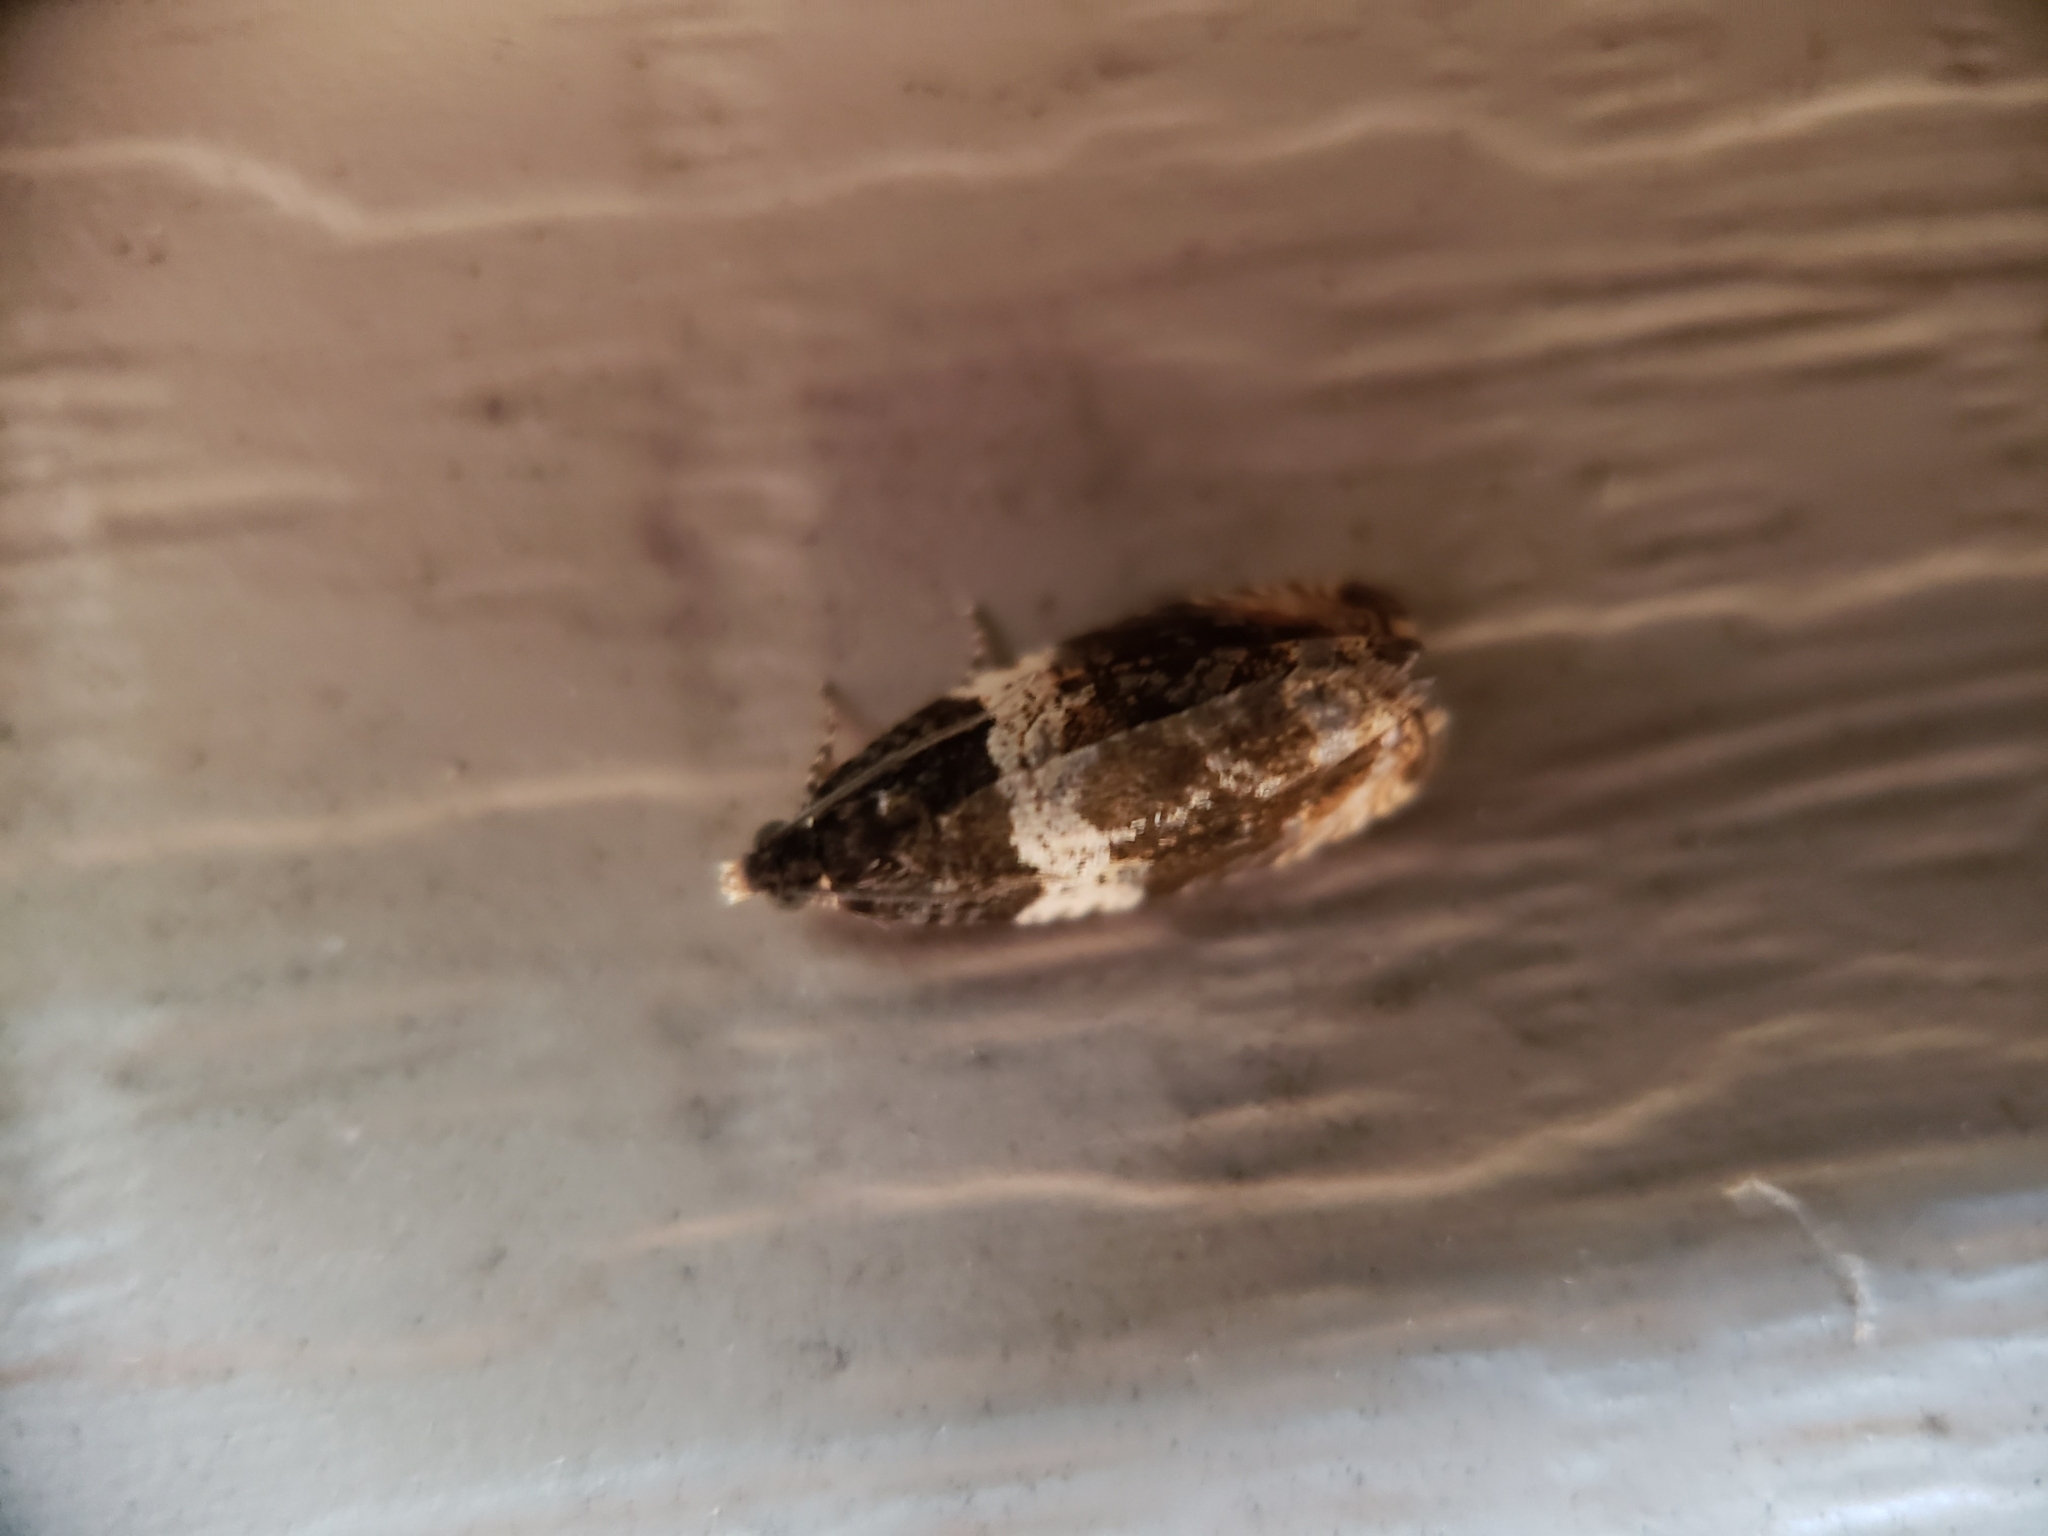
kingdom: Animalia
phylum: Arthropoda
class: Insecta
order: Lepidoptera
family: Tortricidae
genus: Olethreutes
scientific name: Olethreutes fasciatana
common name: Banded olethreutes moth
